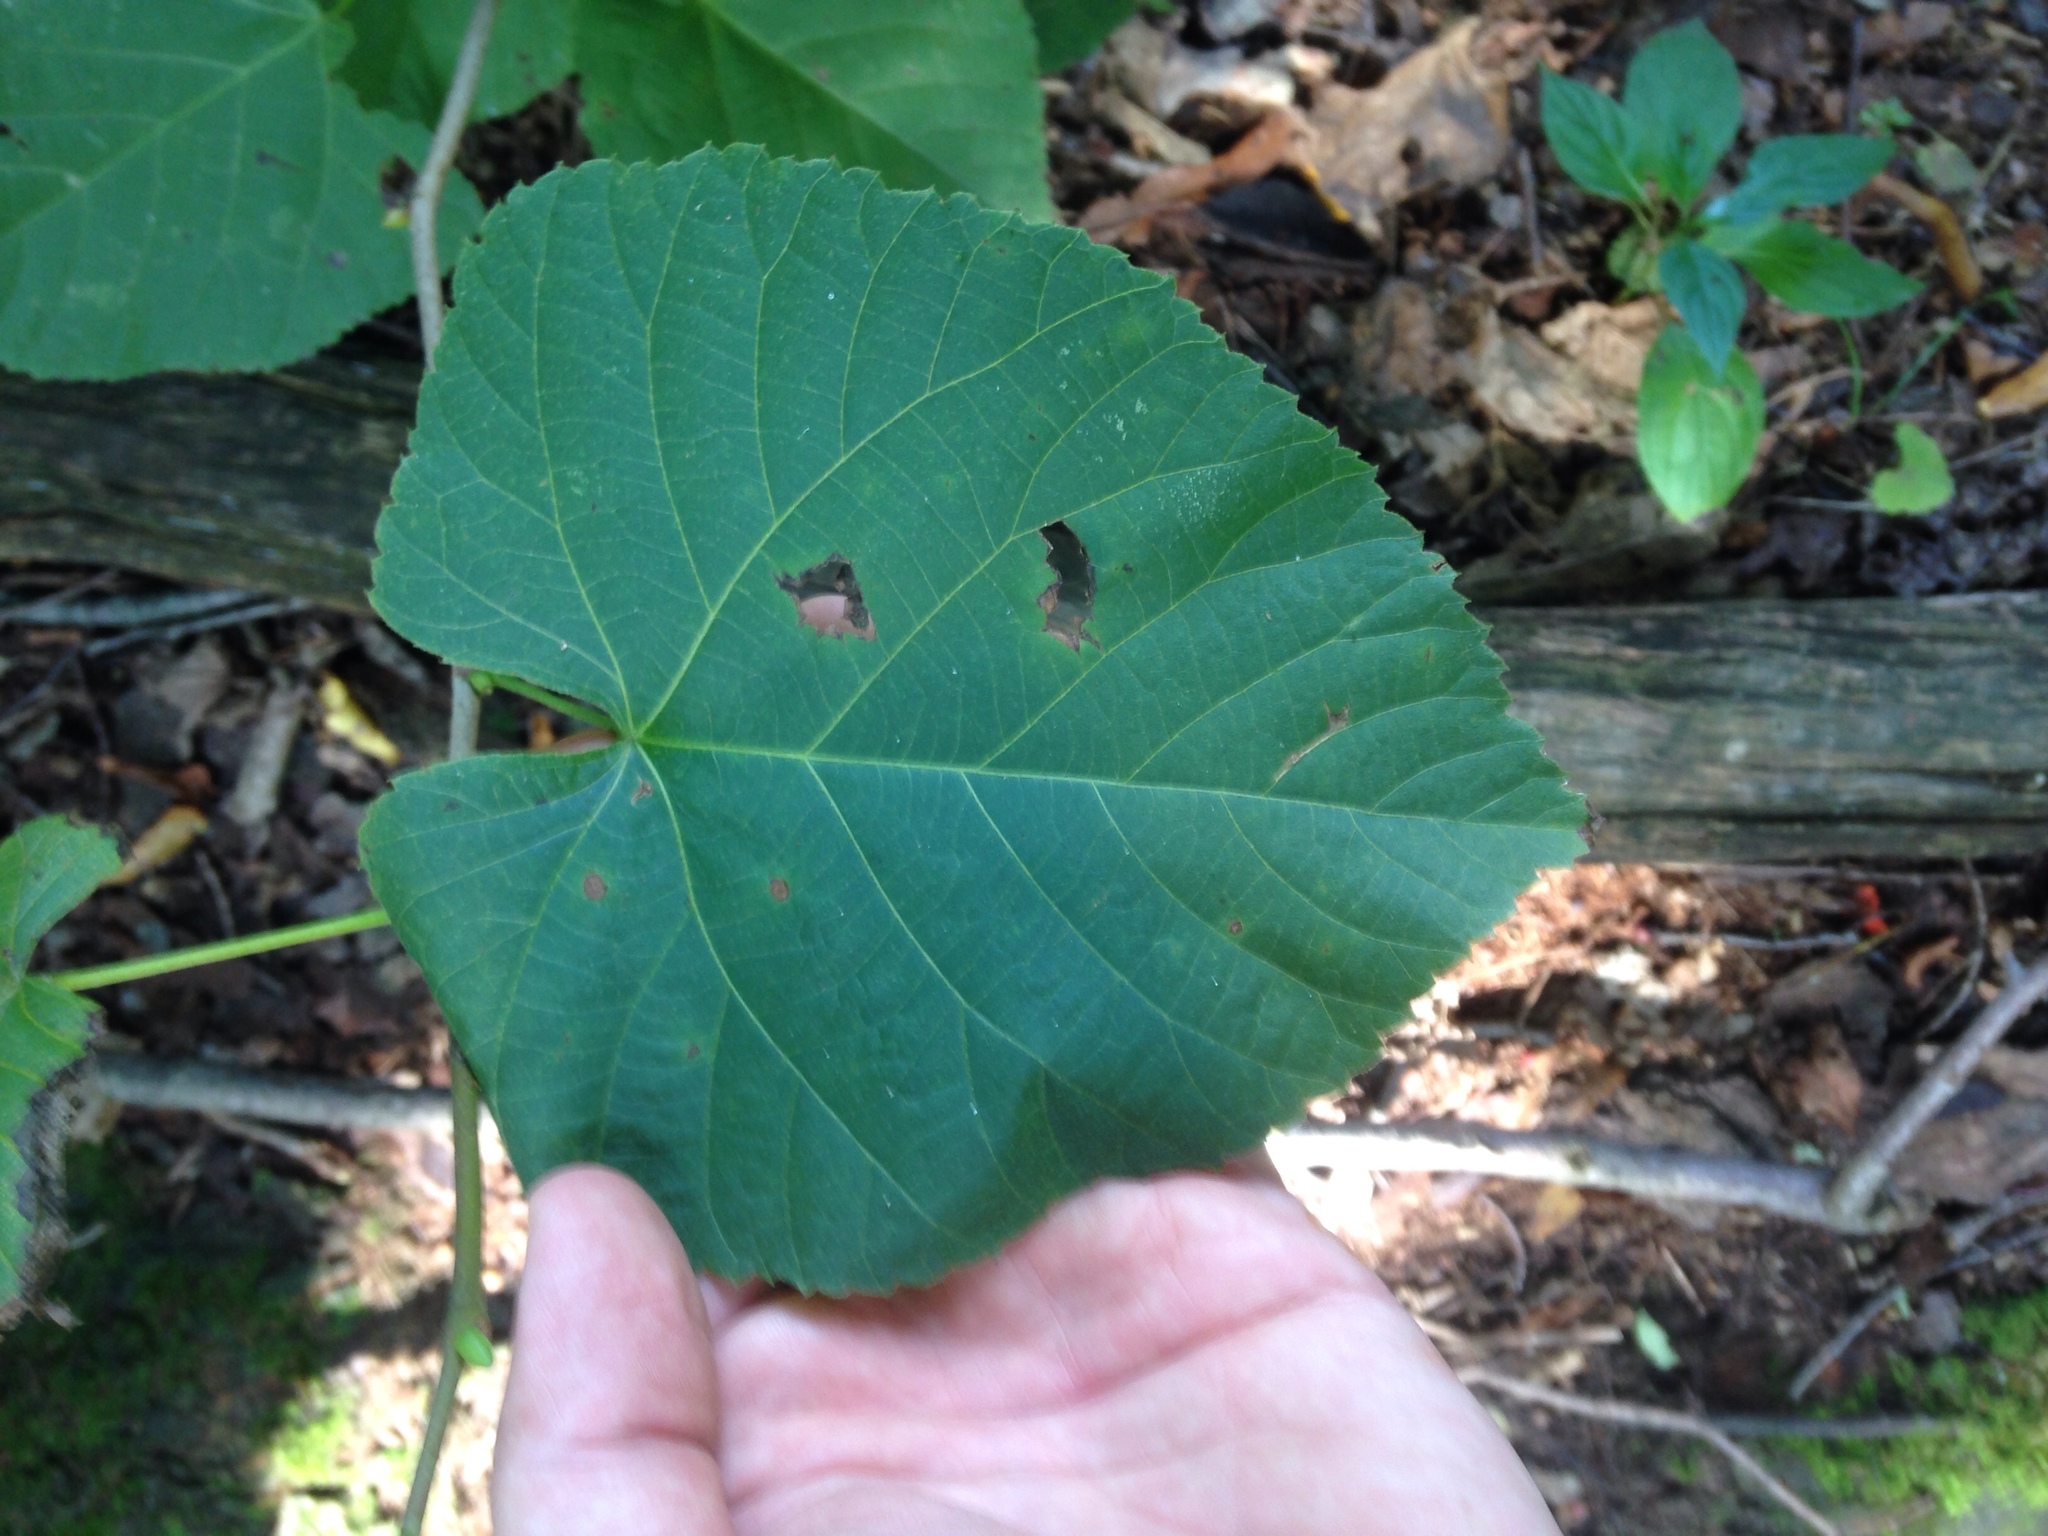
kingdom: Plantae
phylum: Tracheophyta
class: Magnoliopsida
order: Malvales
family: Malvaceae
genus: Tilia
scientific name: Tilia americana
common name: Basswood
